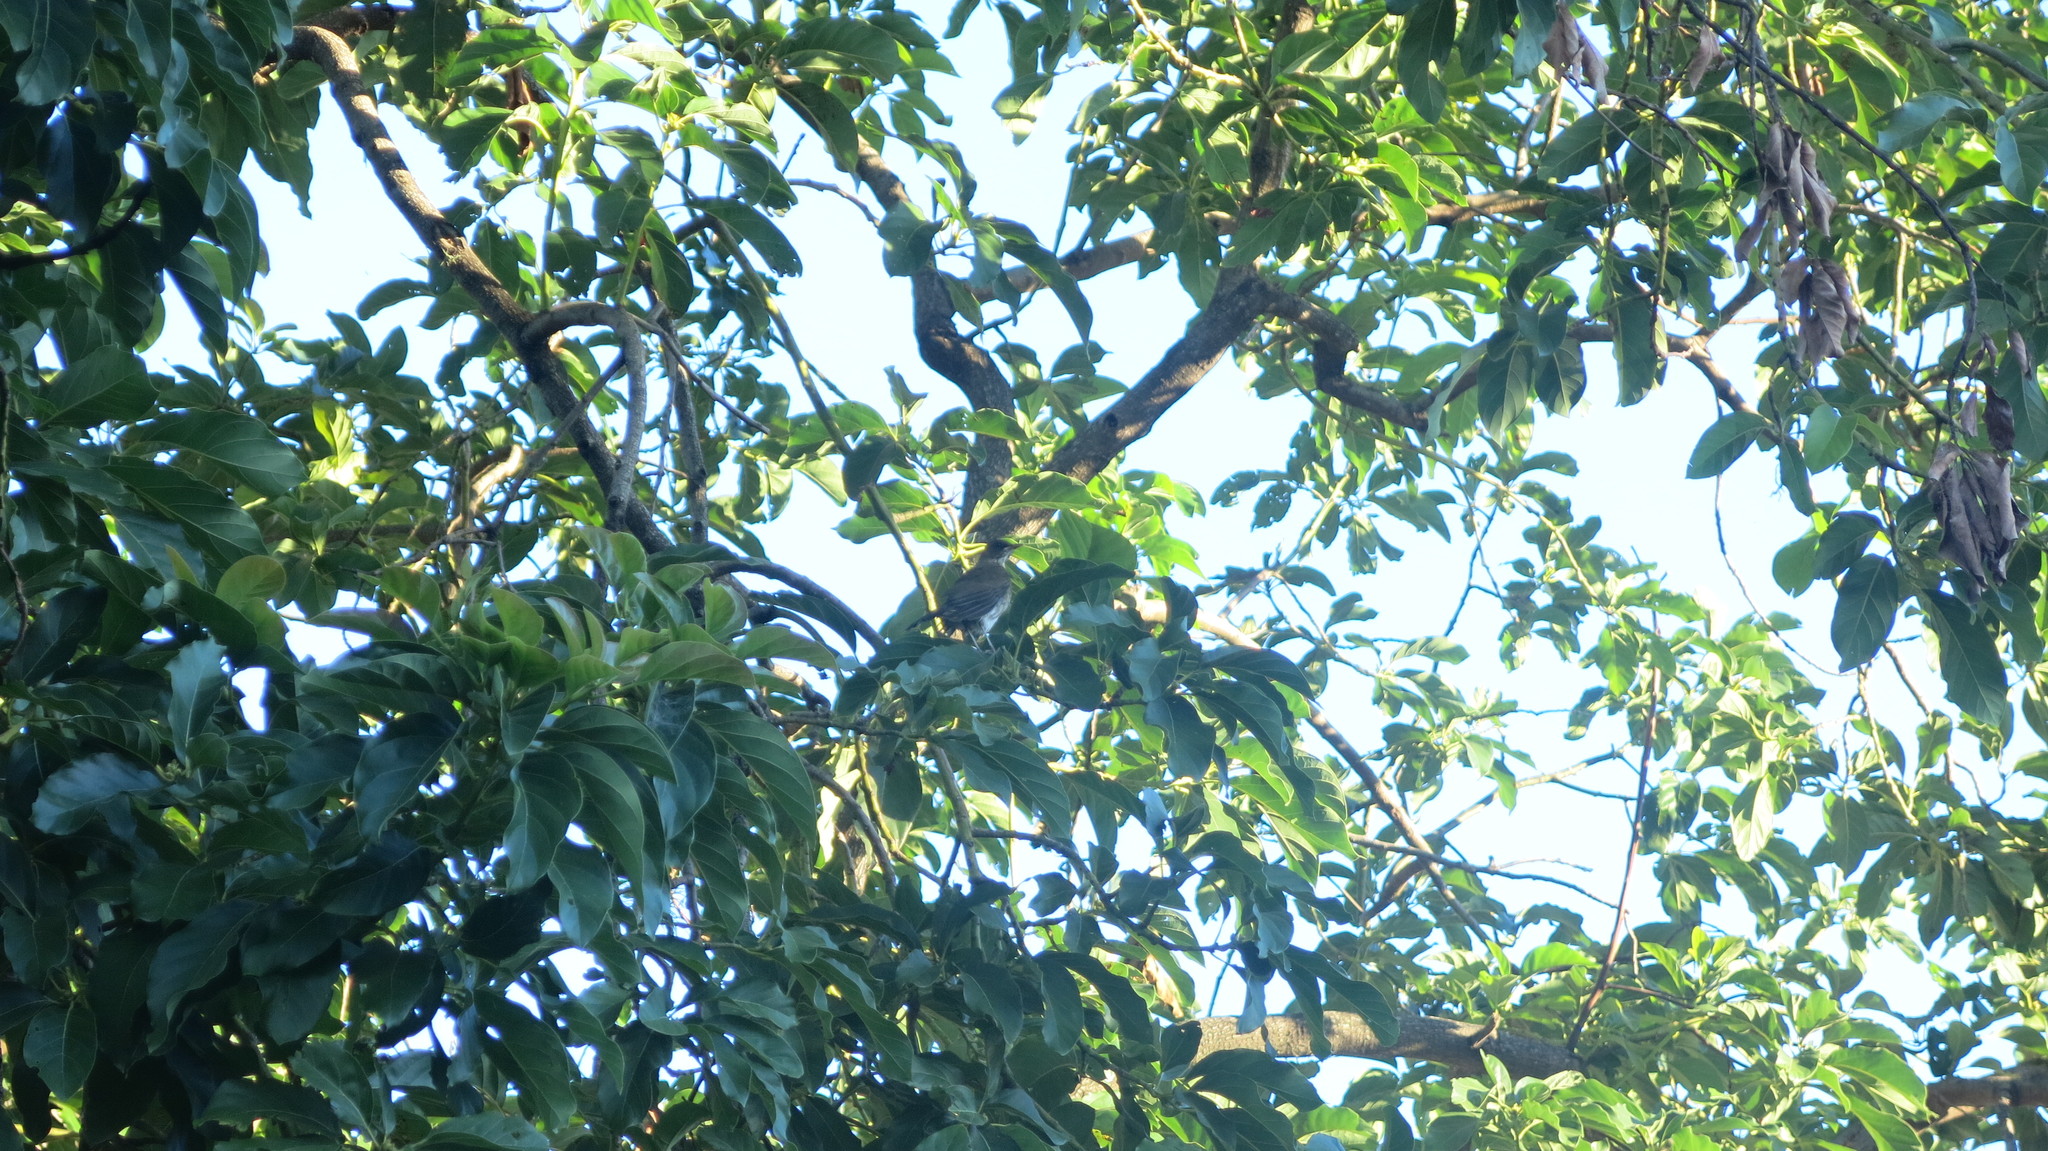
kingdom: Animalia
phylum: Chordata
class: Aves
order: Passeriformes
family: Turdidae
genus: Turdus
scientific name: Turdus amaurochalinus
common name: Creamy-bellied thrush
